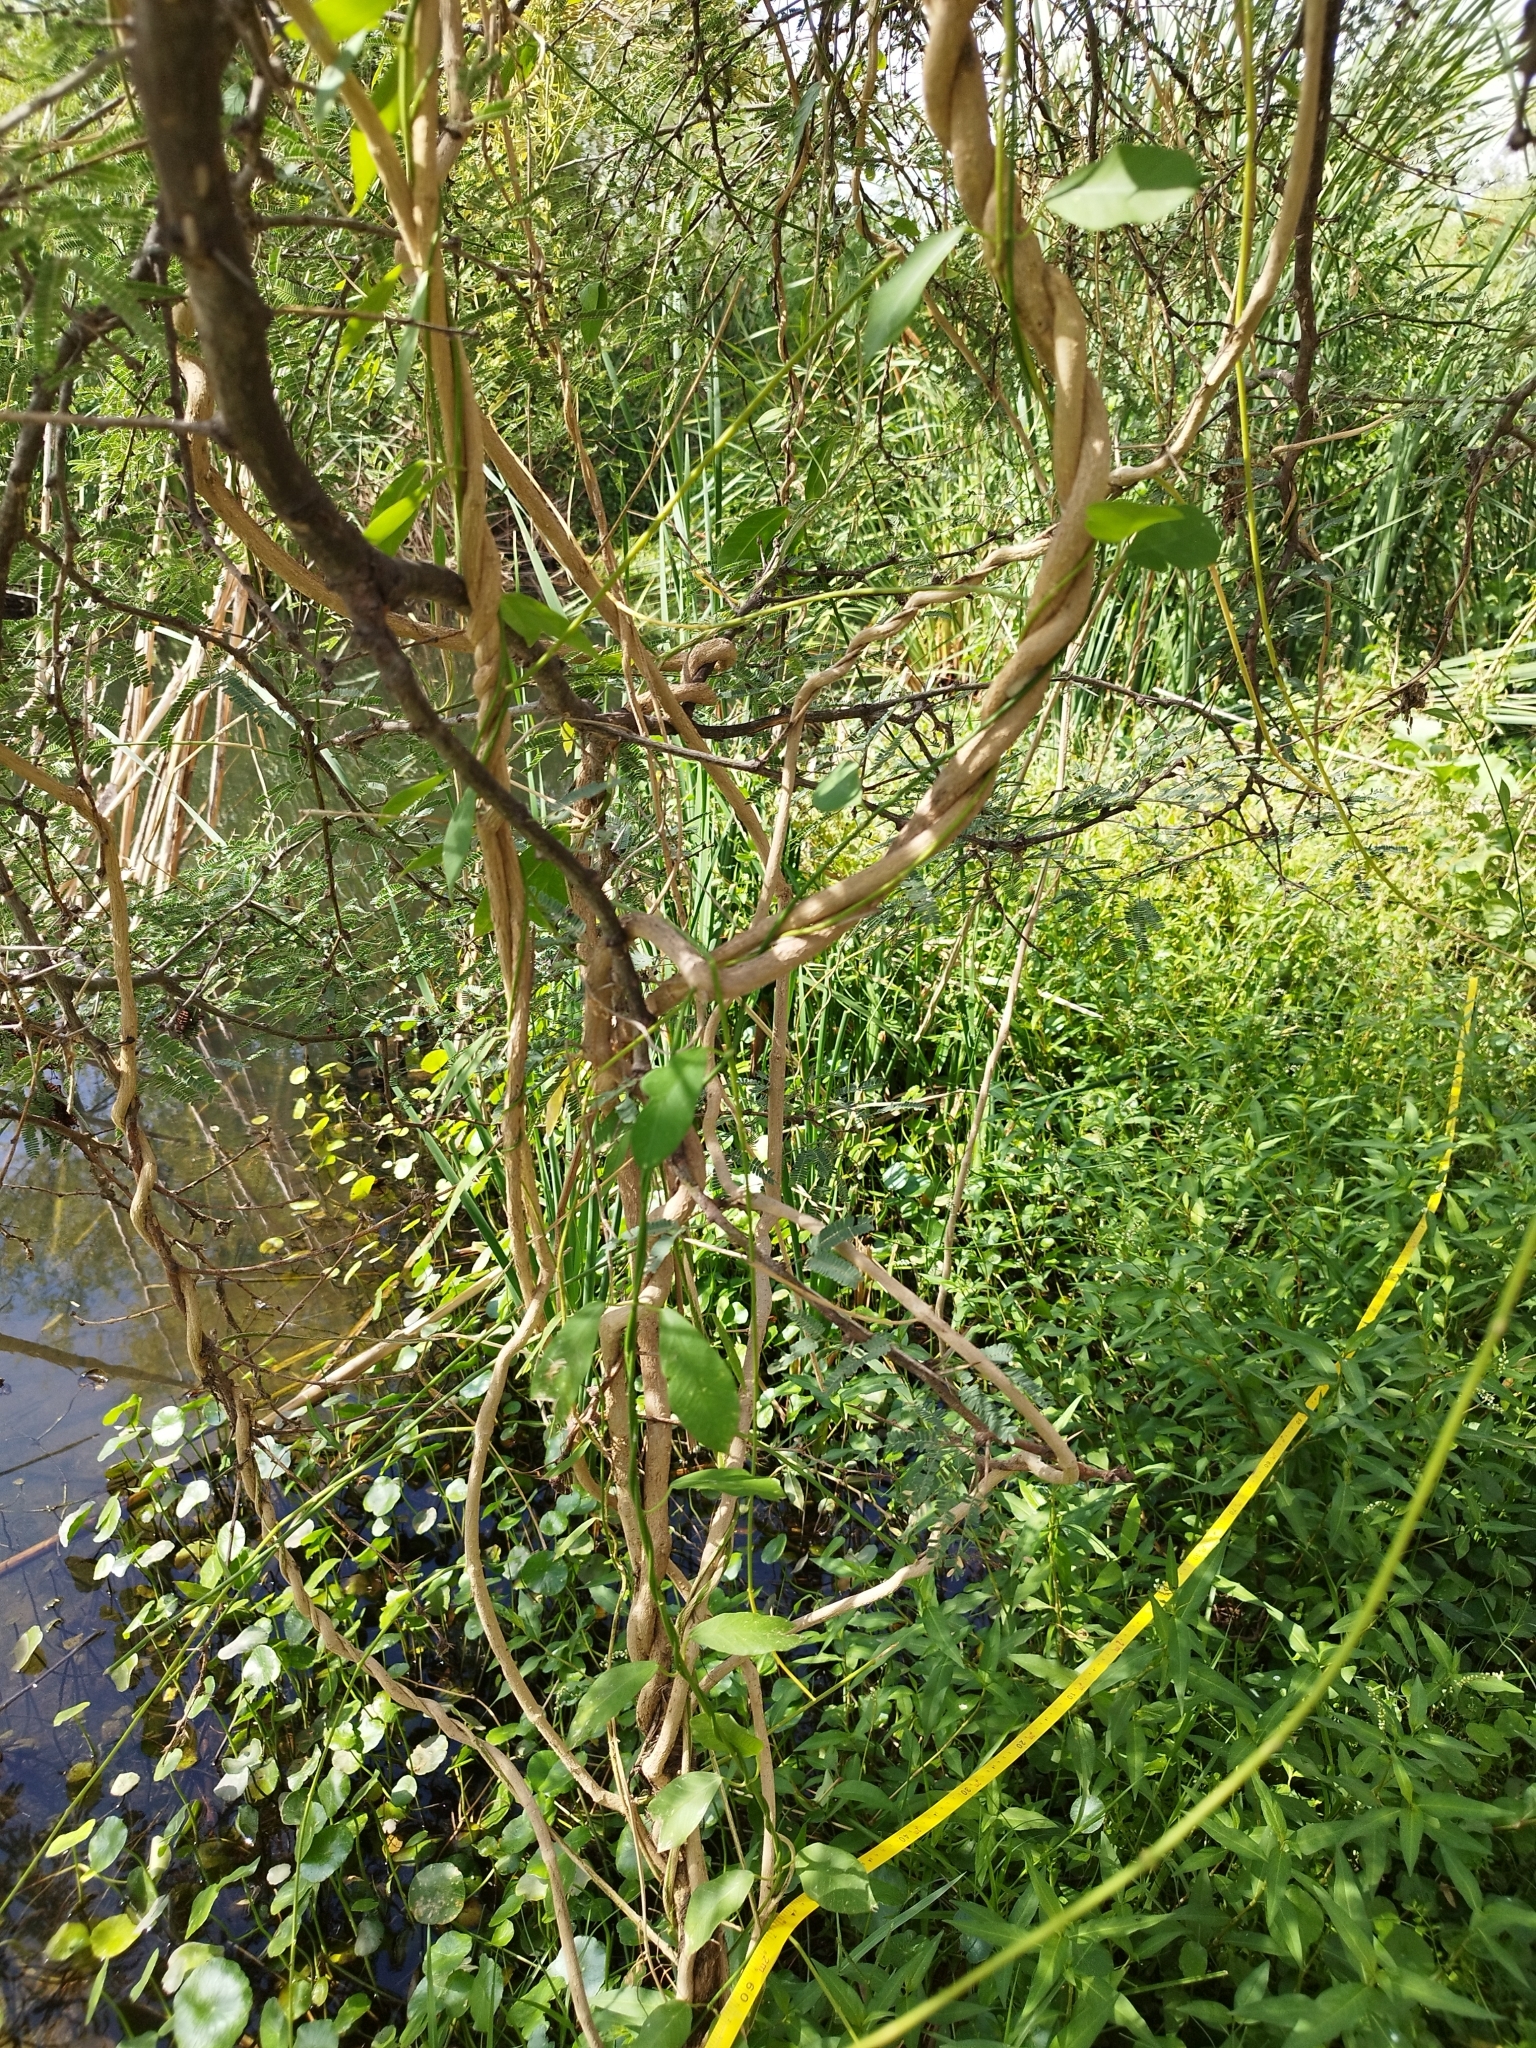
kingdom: Plantae
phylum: Tracheophyta
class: Magnoliopsida
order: Gentianales
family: Apocynaceae
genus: Funastrum
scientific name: Funastrum clausum
